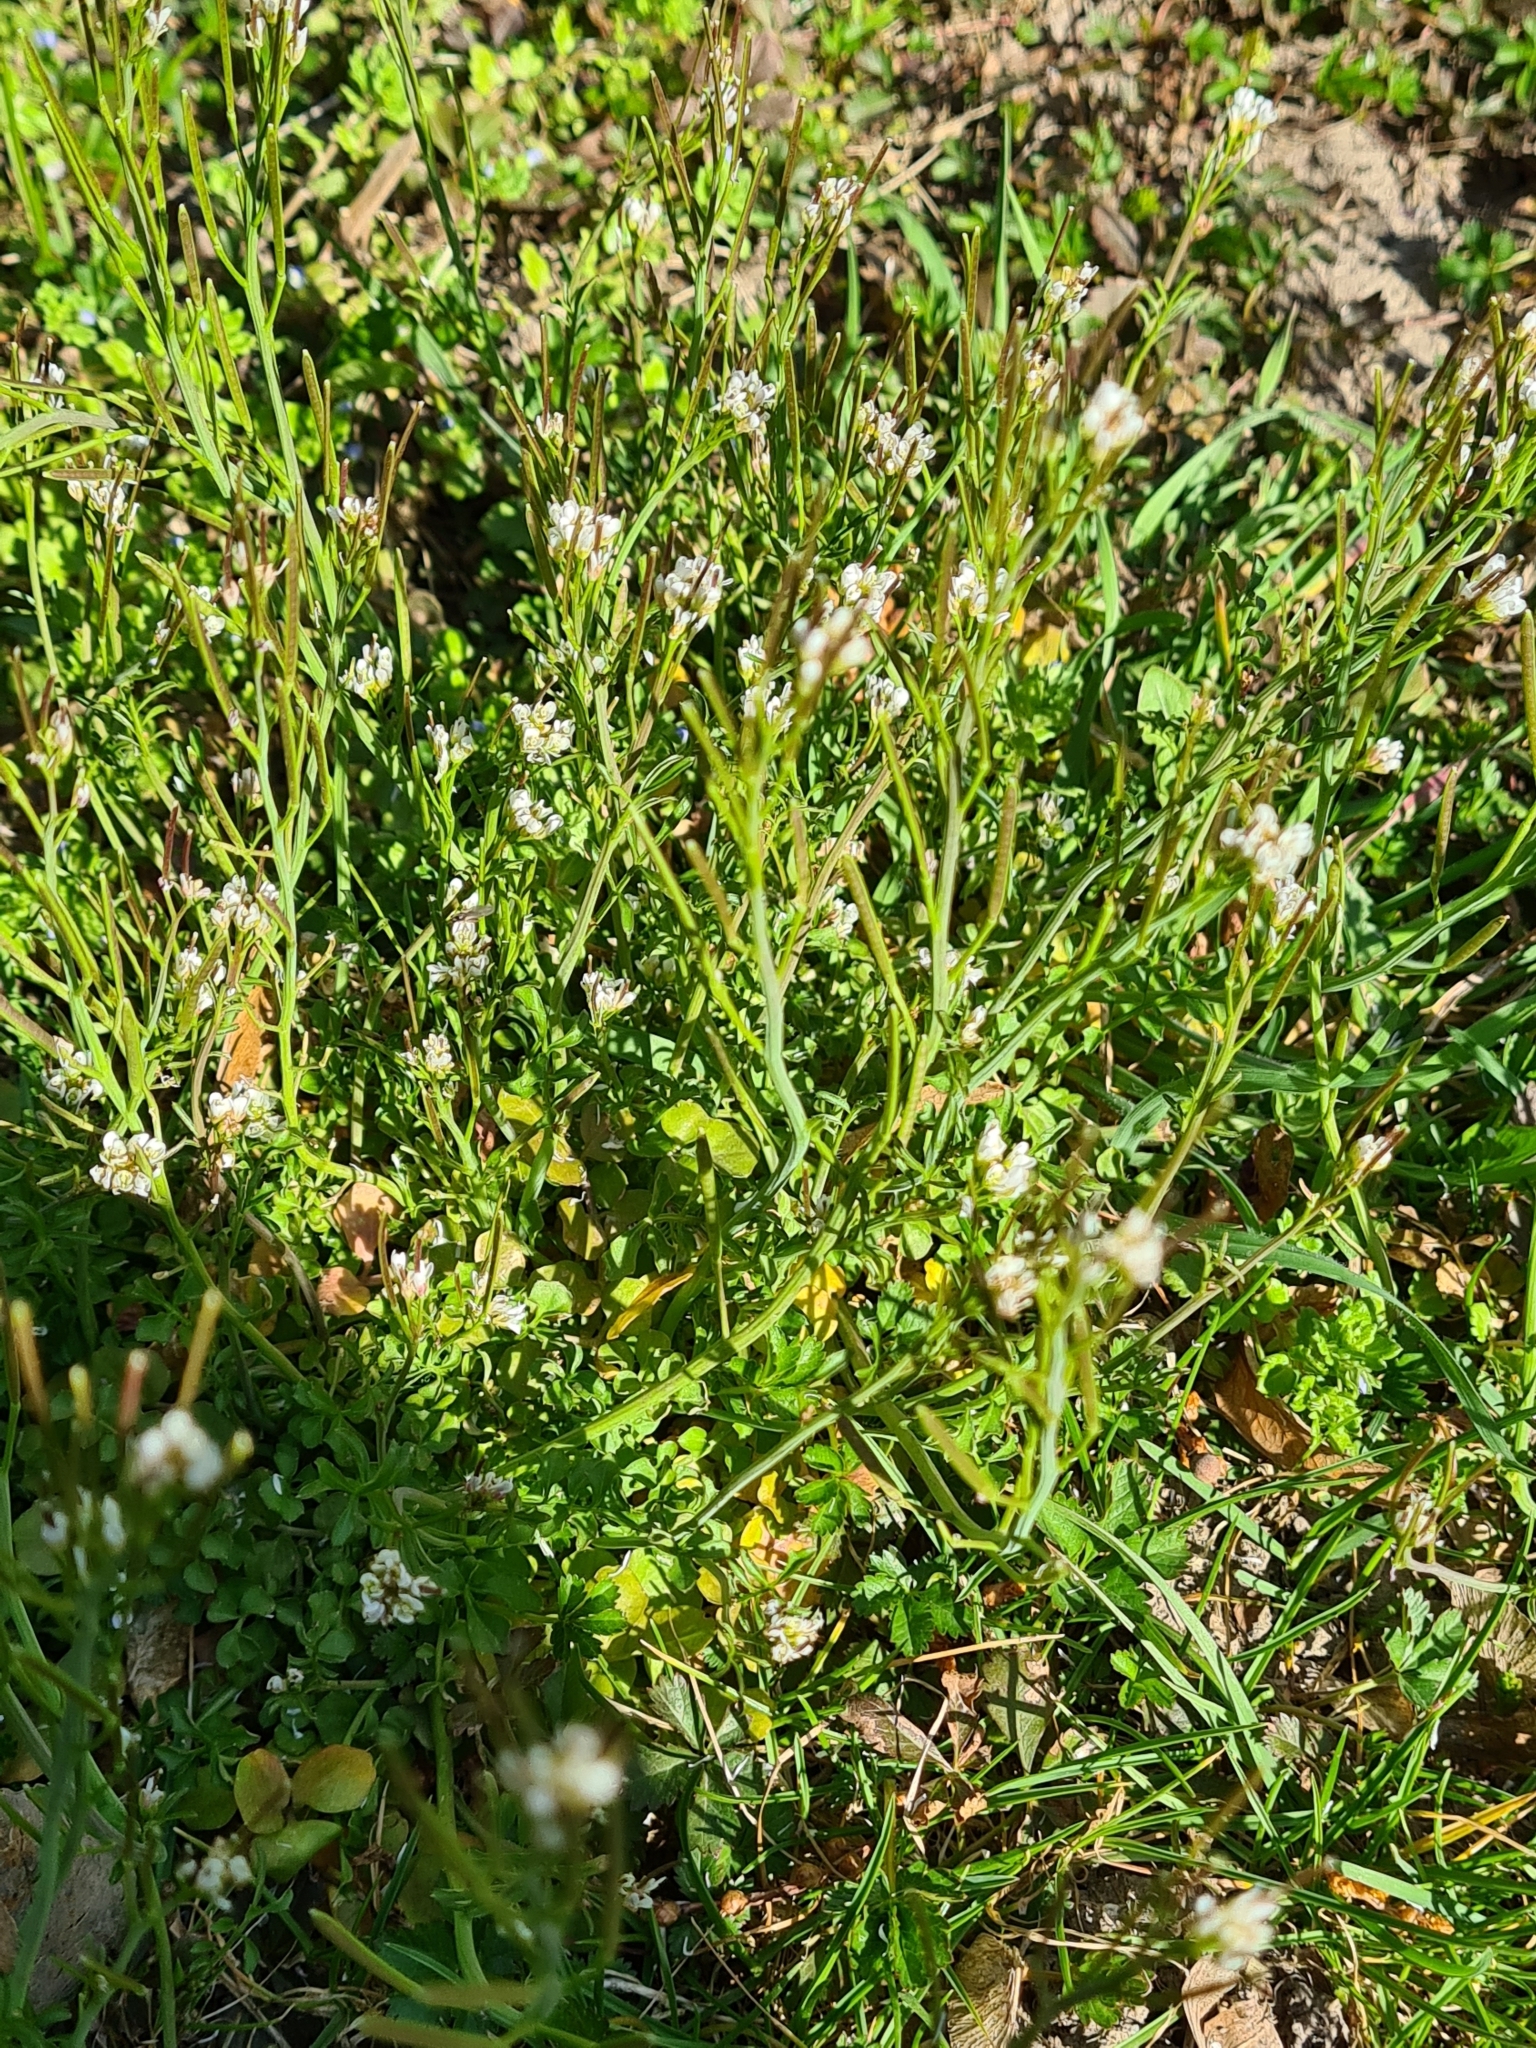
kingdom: Plantae
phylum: Tracheophyta
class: Magnoliopsida
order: Brassicales
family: Brassicaceae
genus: Cardamine
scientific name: Cardamine hirsuta
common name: Hairy bittercress
